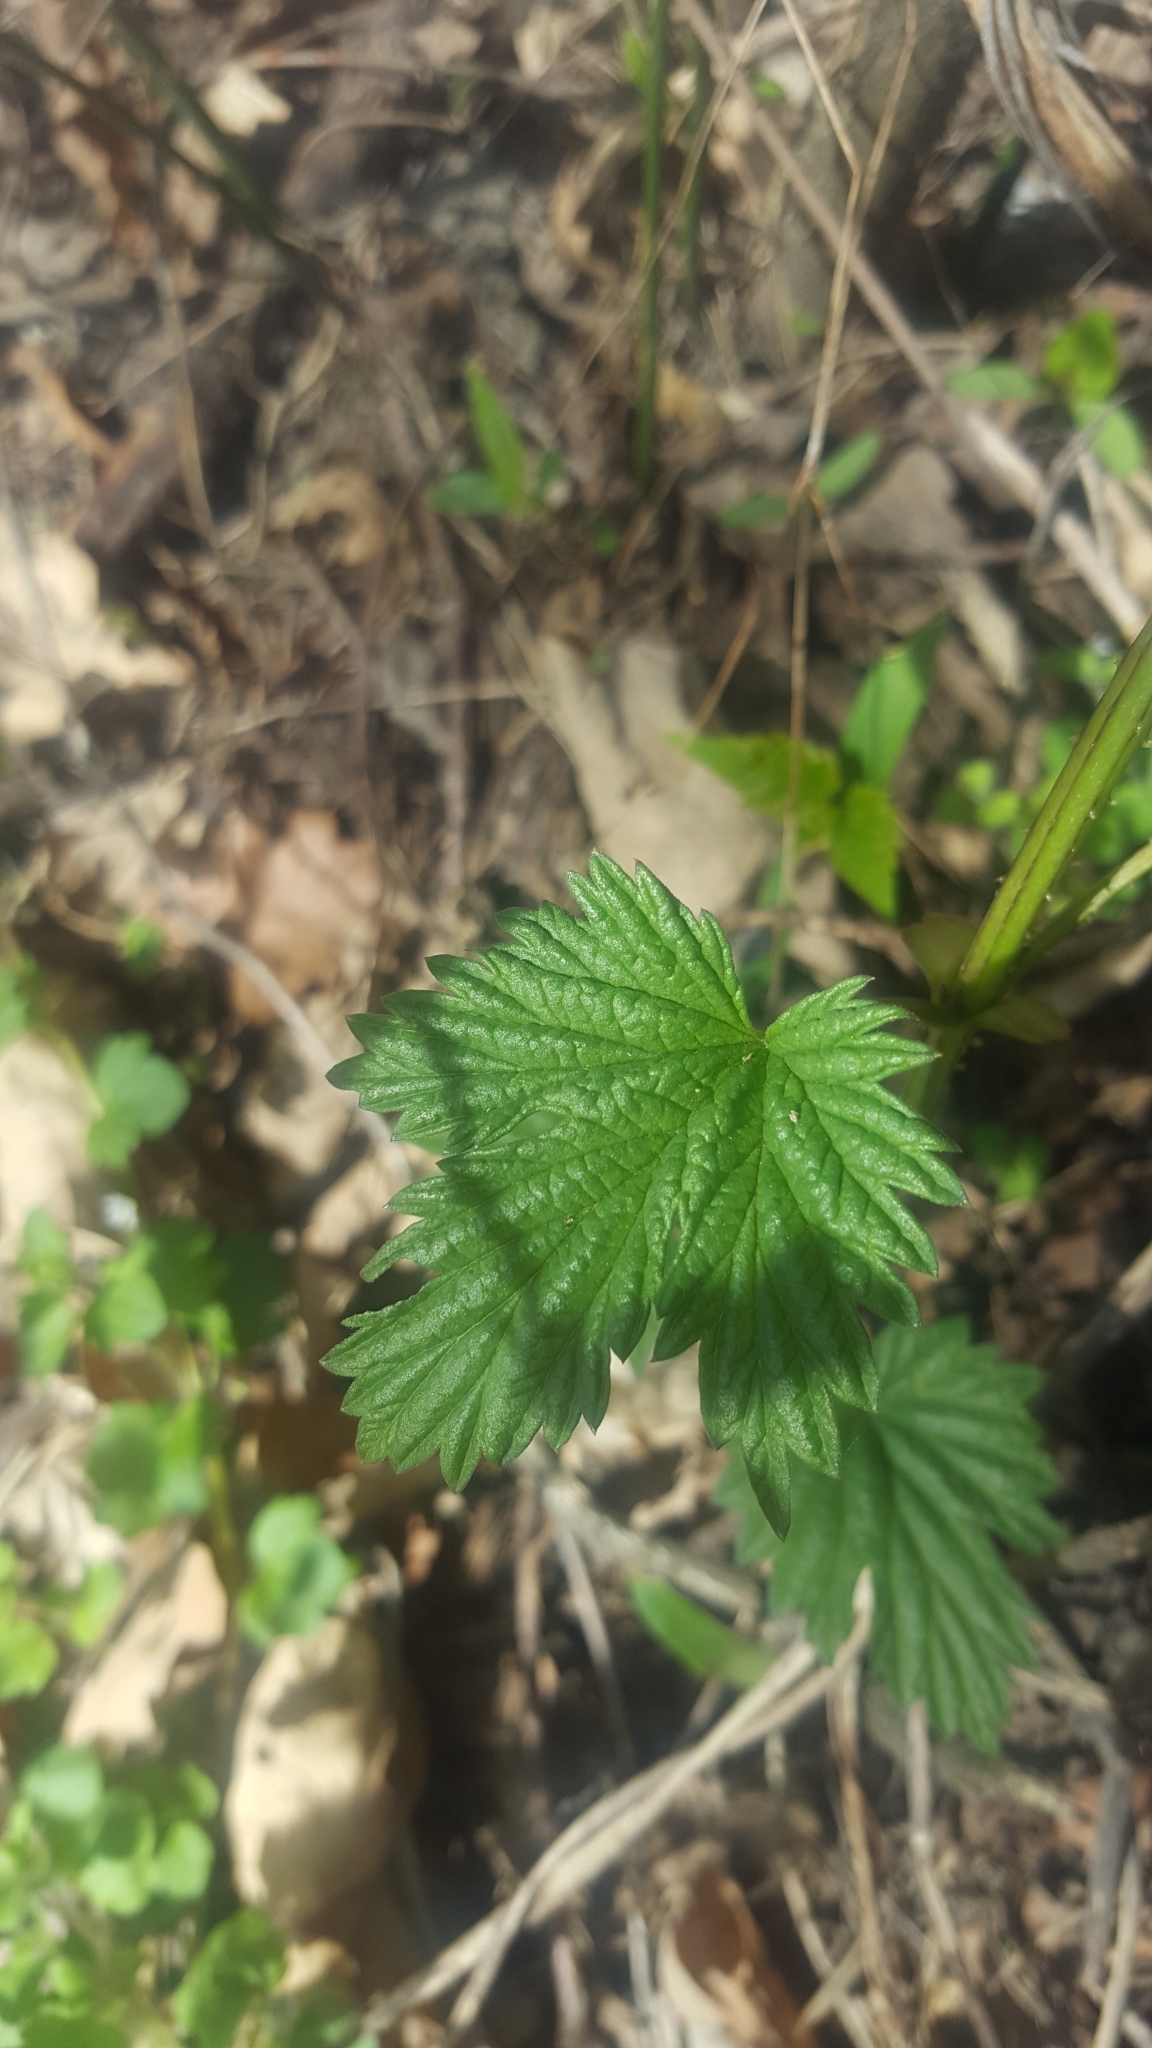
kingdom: Plantae
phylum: Tracheophyta
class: Magnoliopsida
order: Rosales
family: Cannabaceae
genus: Humulus
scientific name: Humulus lupulus
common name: Hop
